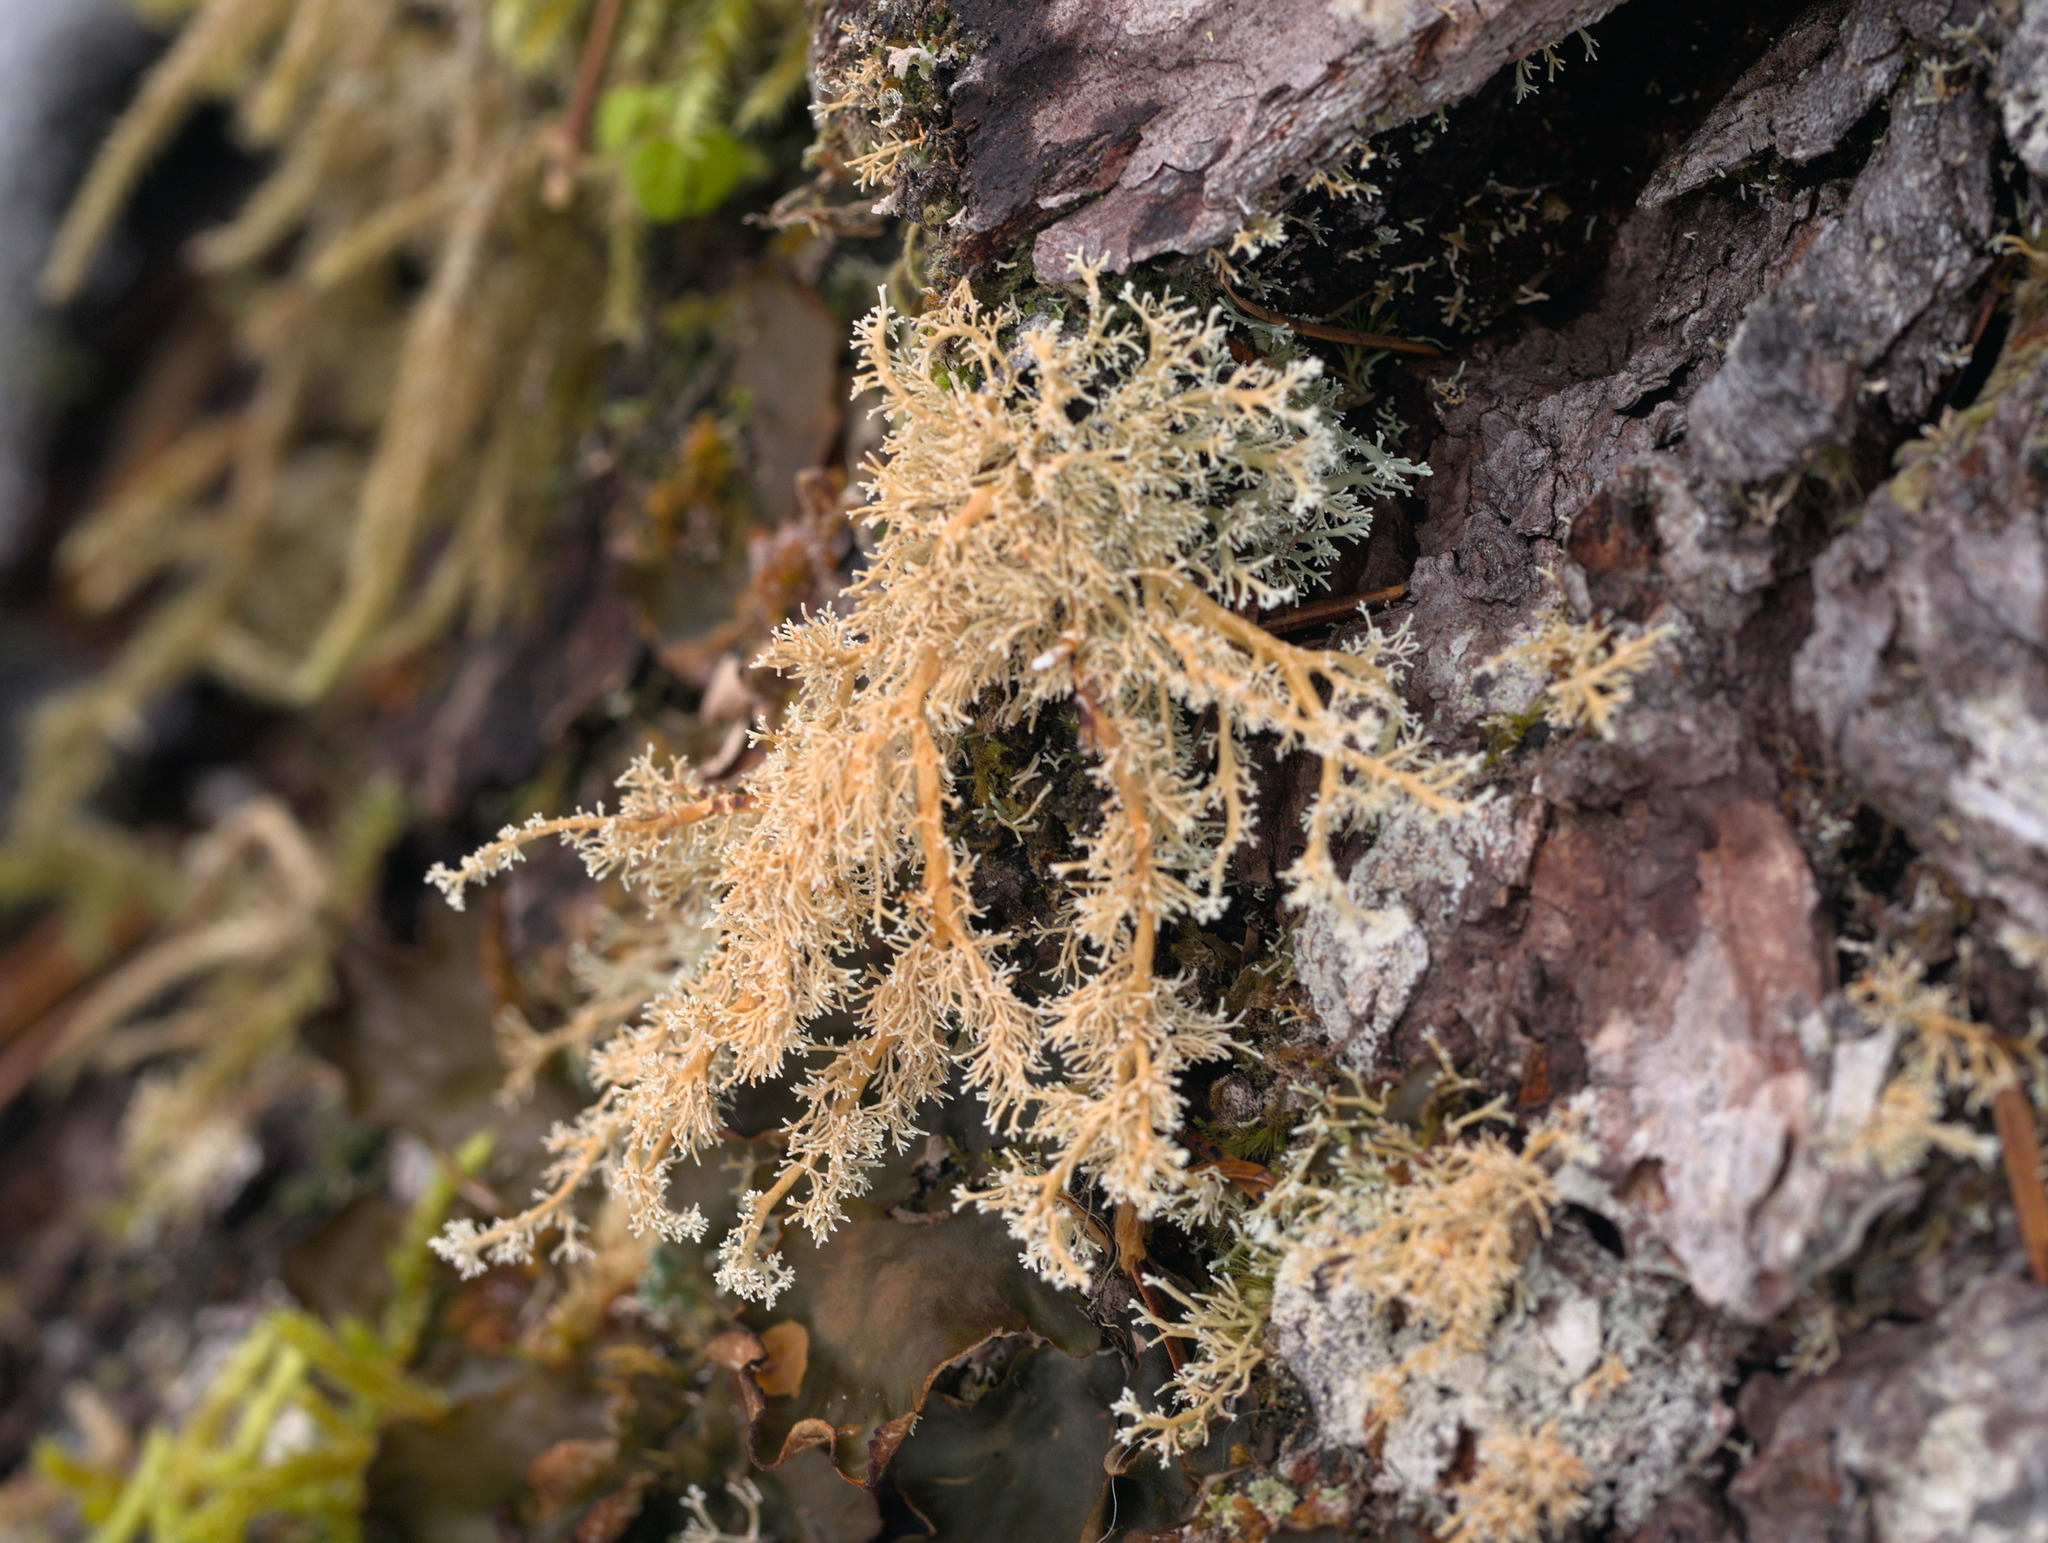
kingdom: Fungi
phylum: Ascomycota
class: Lecanoromycetes
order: Lecanorales
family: Sphaerophoraceae
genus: Sphaerophorus
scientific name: Sphaerophorus venerabilis
